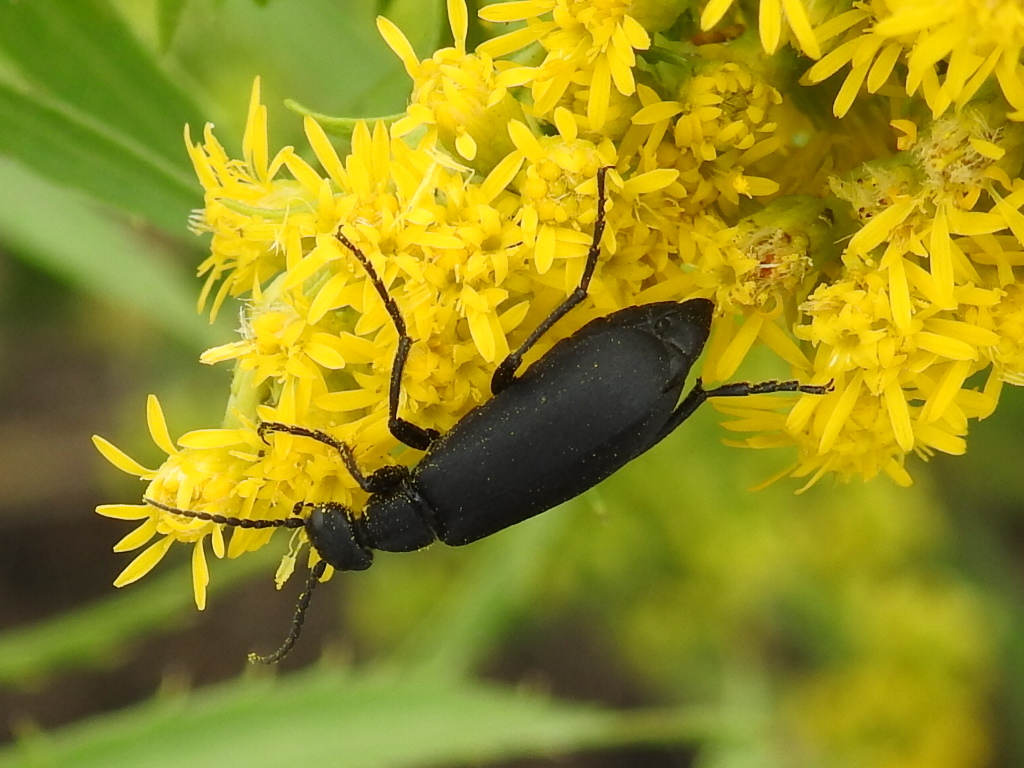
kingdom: Animalia
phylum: Arthropoda
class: Insecta
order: Coleoptera
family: Meloidae
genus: Epicauta
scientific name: Epicauta pensylvanica
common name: Black blister beetle
